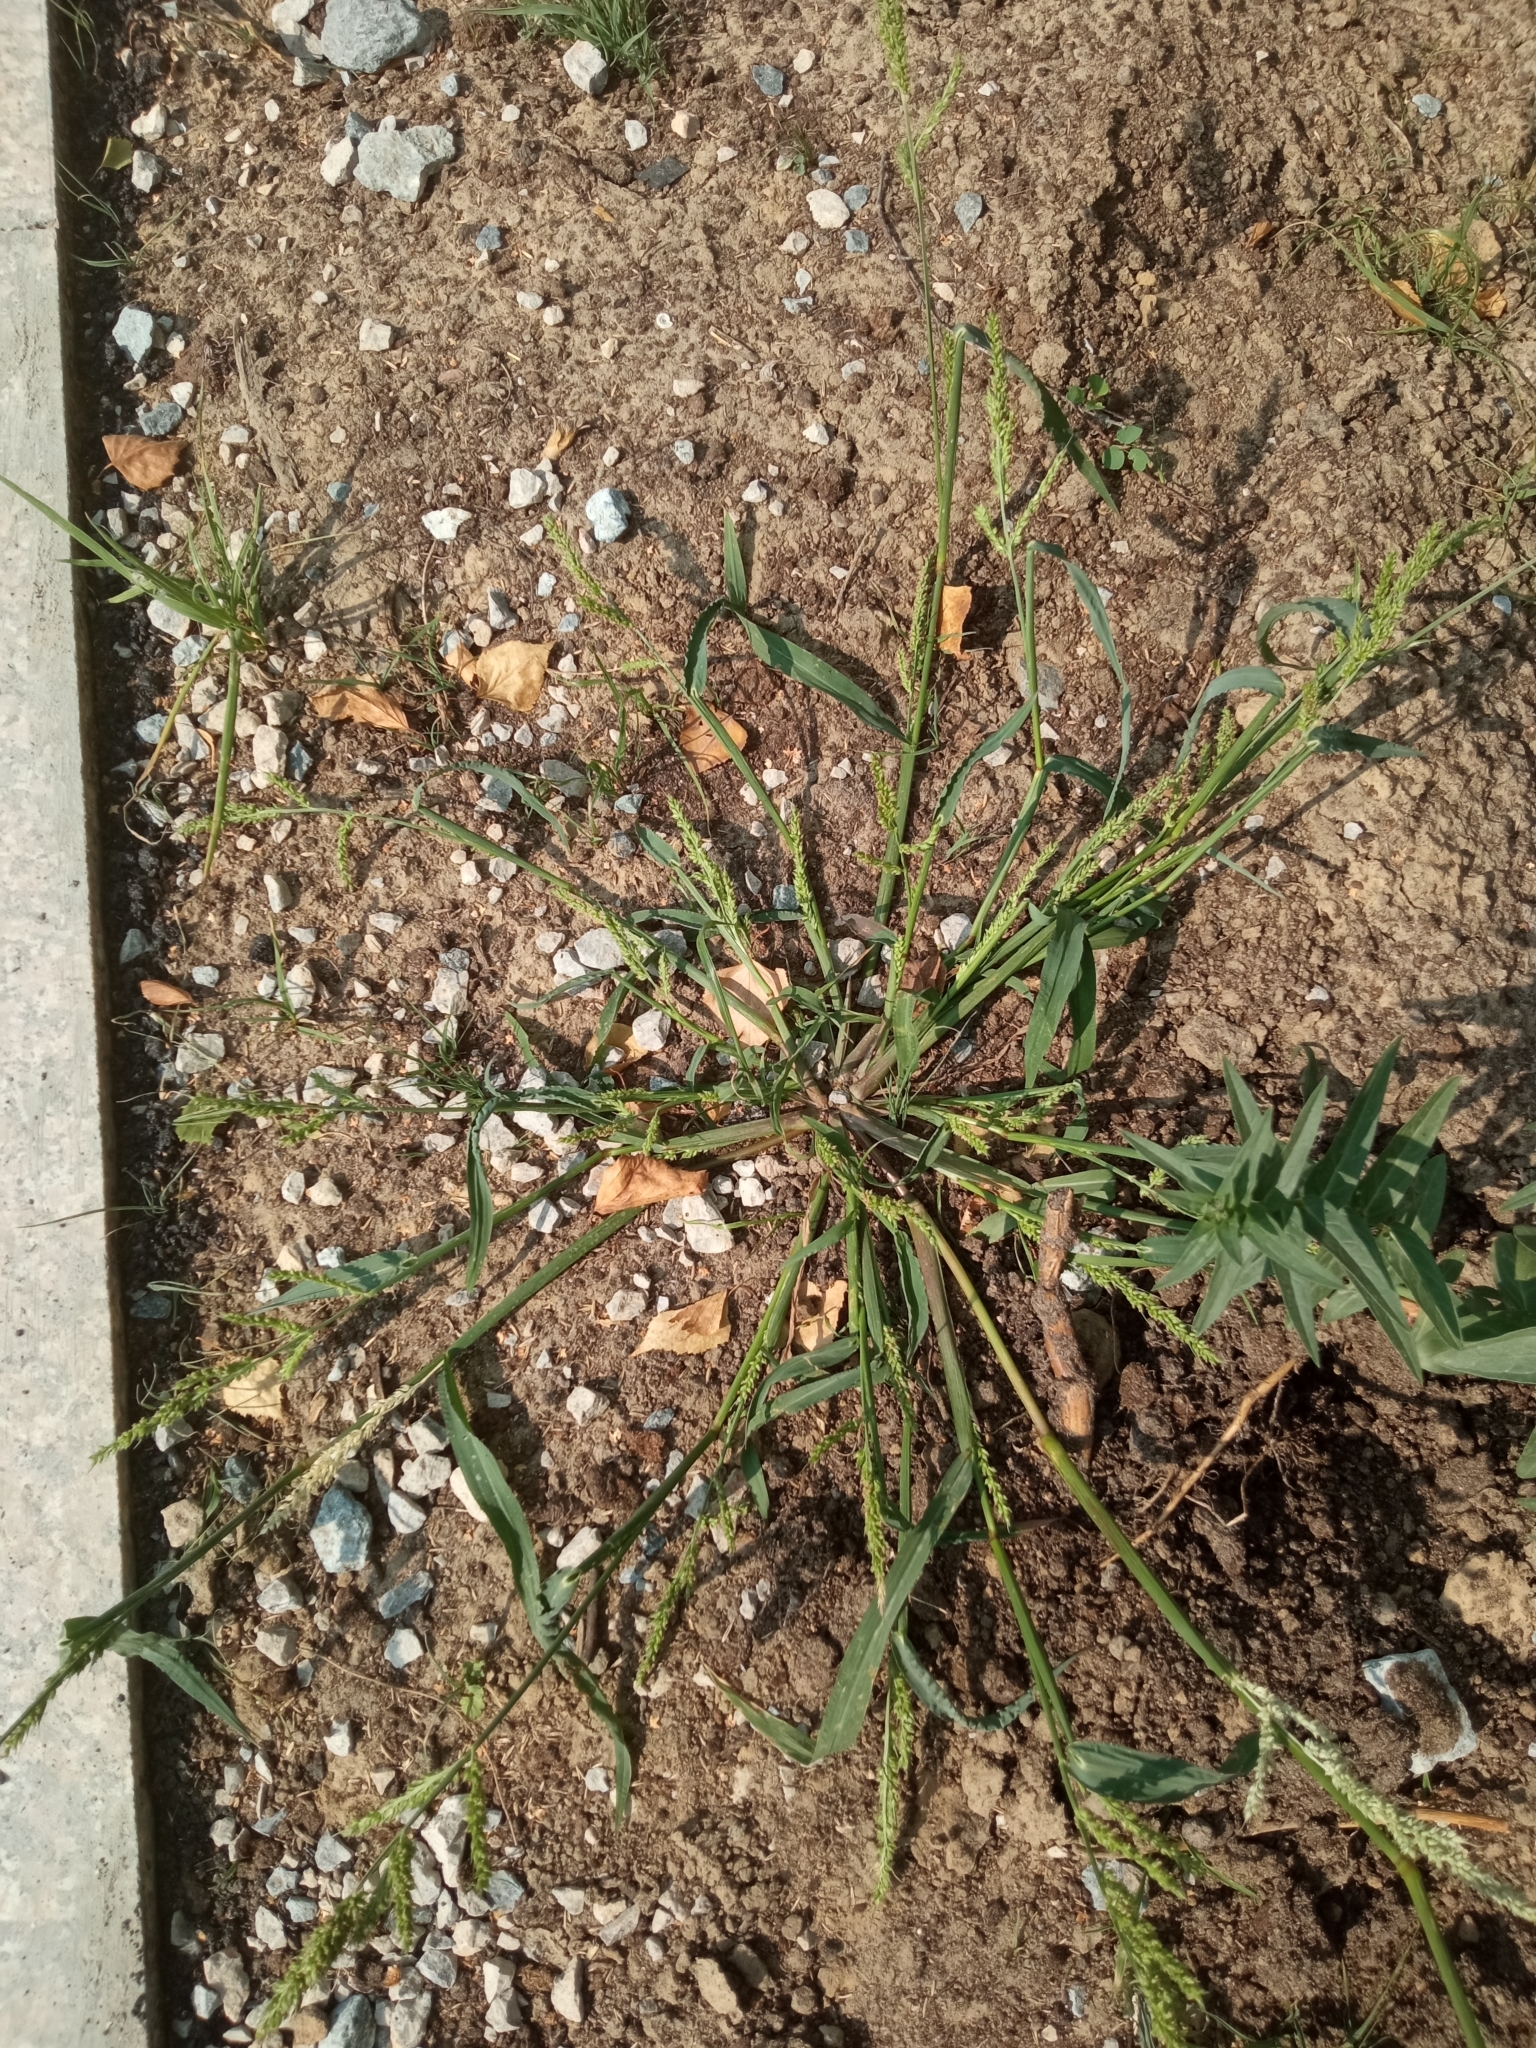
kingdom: Plantae
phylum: Tracheophyta
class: Liliopsida
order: Poales
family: Poaceae
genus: Echinochloa
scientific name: Echinochloa crus-galli
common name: Cockspur
